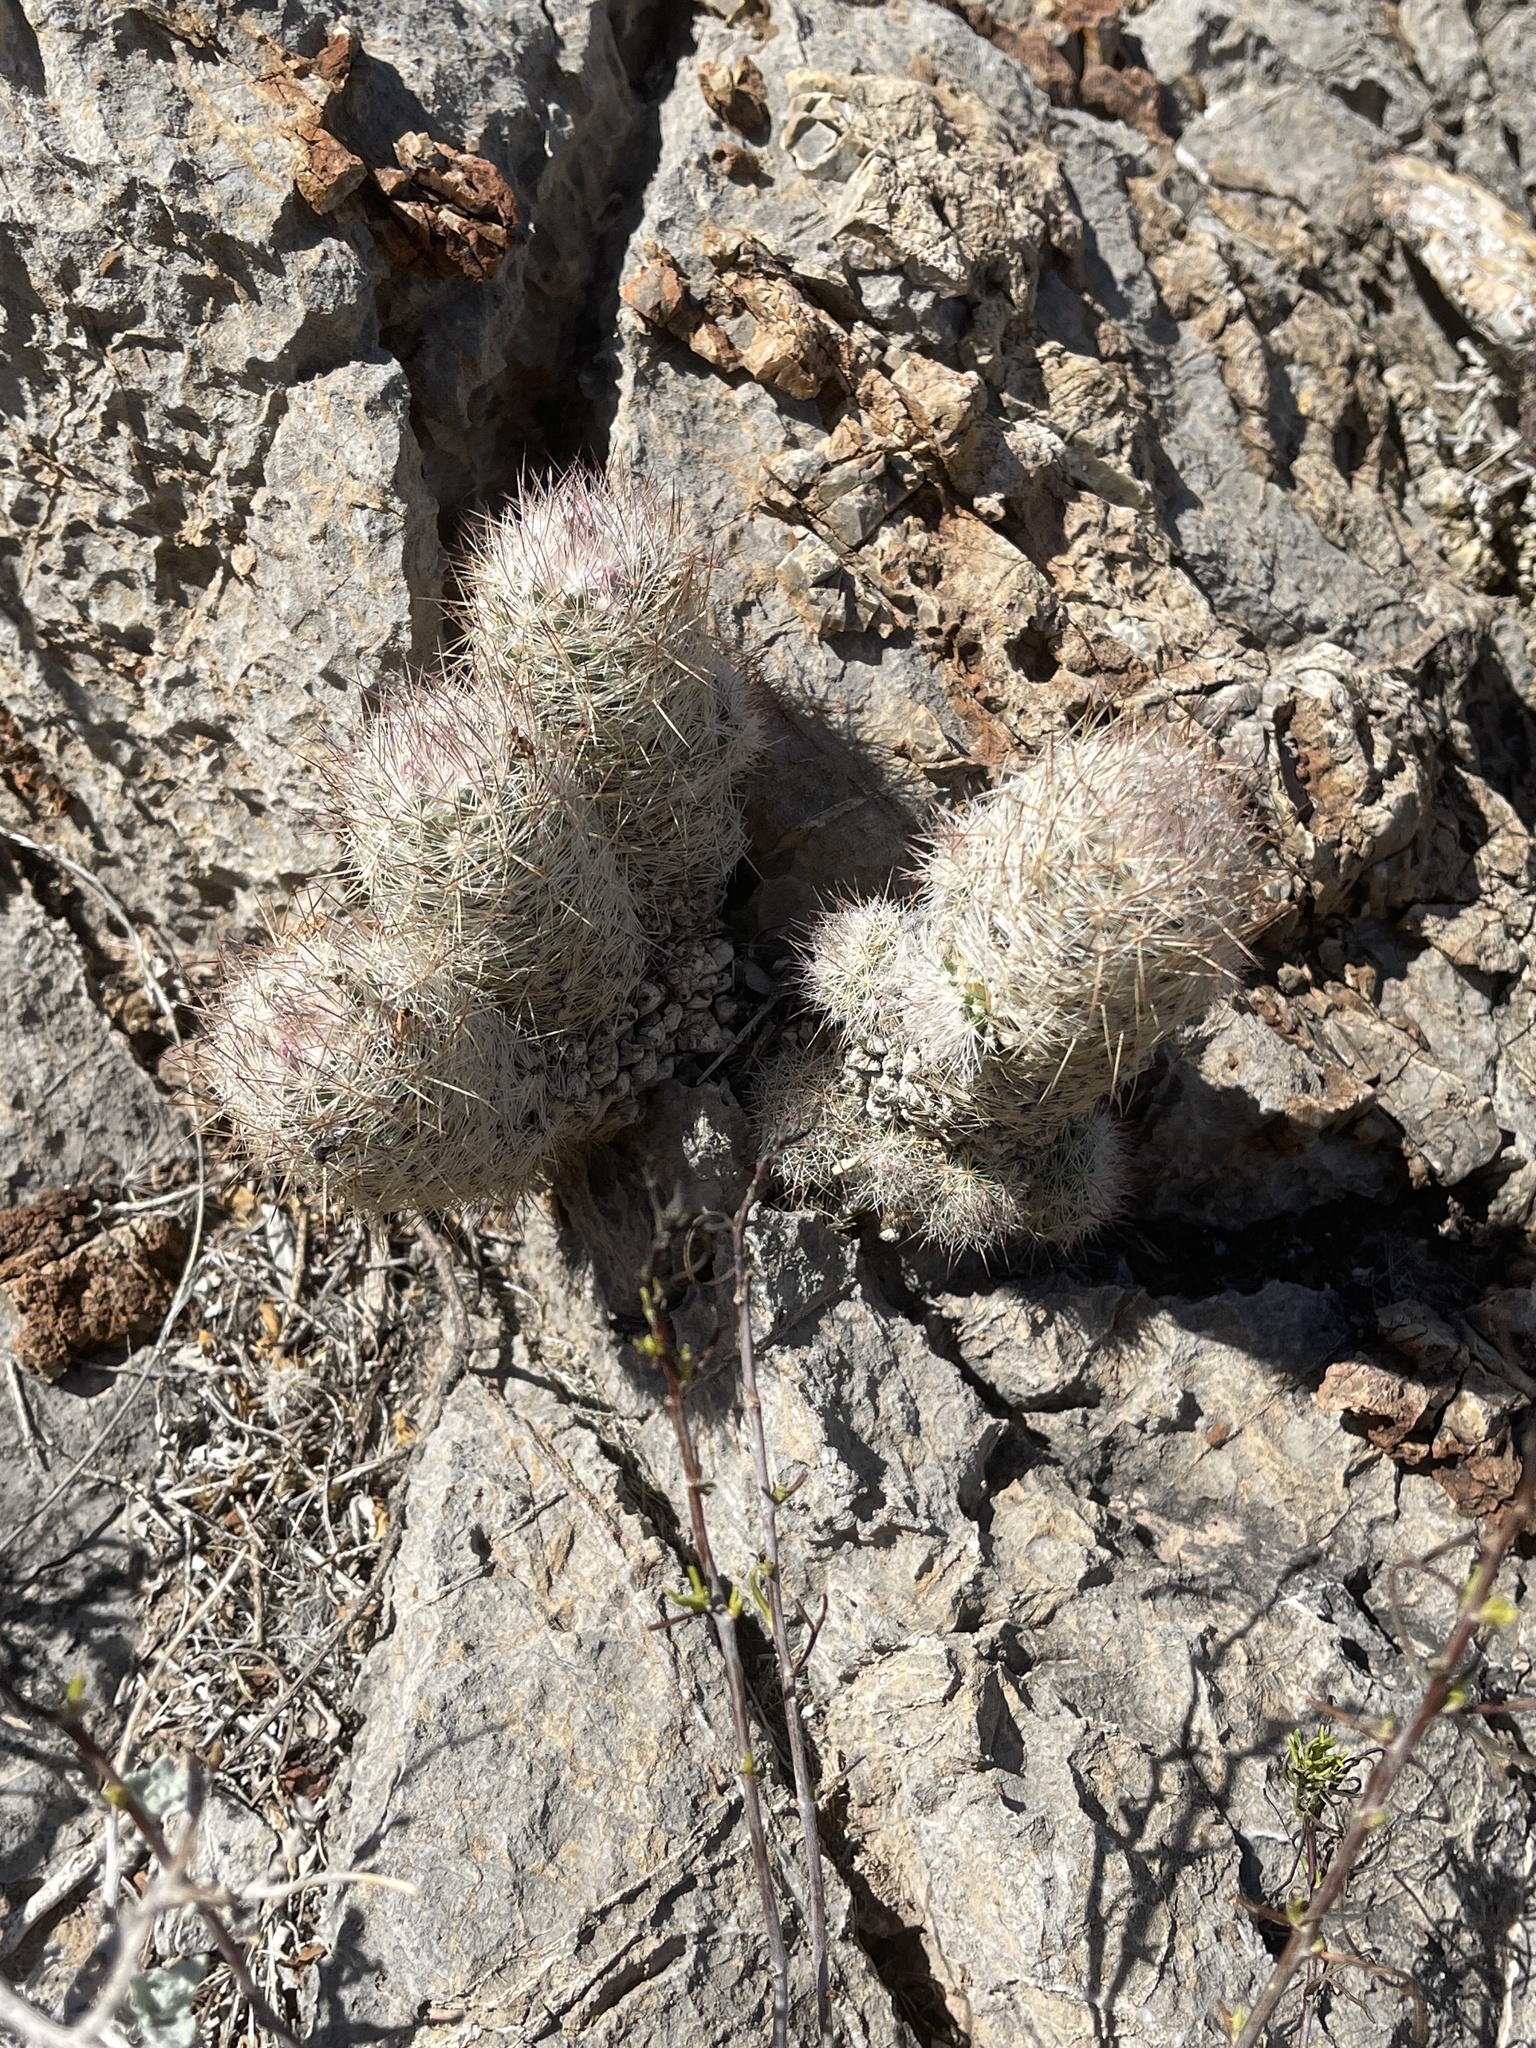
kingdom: Plantae
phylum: Tracheophyta
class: Magnoliopsida
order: Caryophyllales
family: Cactaceae
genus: Pelecyphora
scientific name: Pelecyphora tuberculosa
